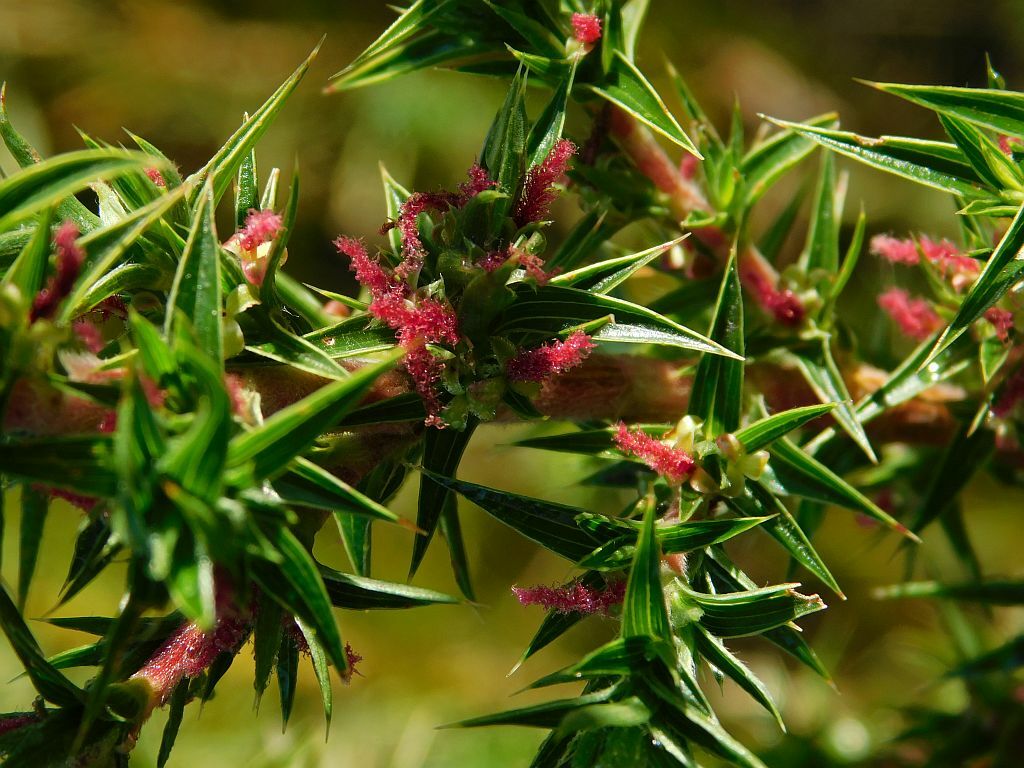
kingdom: Plantae
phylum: Tracheophyta
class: Magnoliopsida
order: Rosales
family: Rosaceae
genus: Cliffortia
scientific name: Cliffortia ruscifolia
